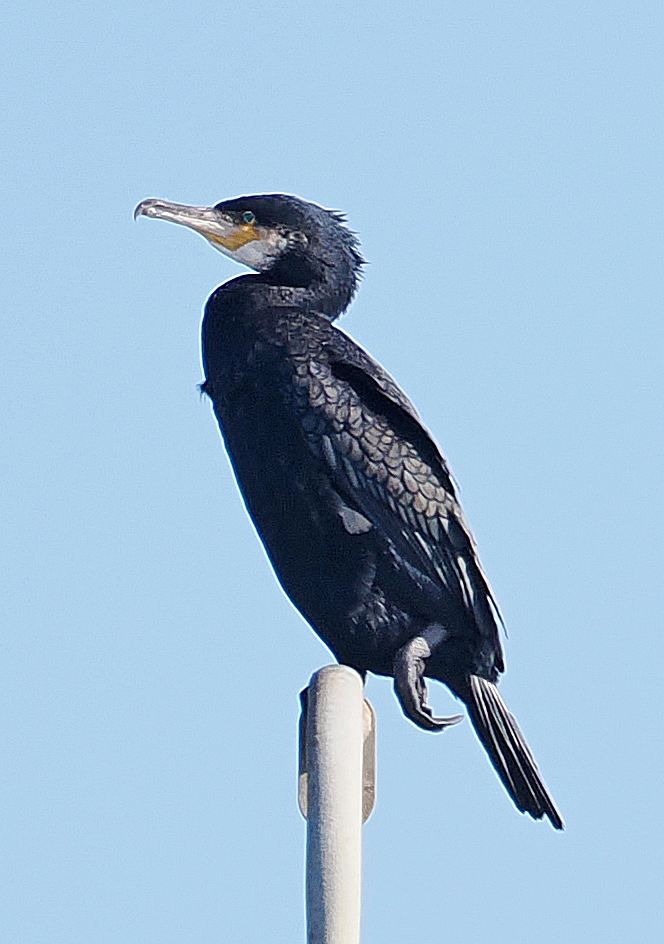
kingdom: Animalia
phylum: Chordata
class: Aves
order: Suliformes
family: Phalacrocoracidae
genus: Phalacrocorax
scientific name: Phalacrocorax carbo
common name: Great cormorant
